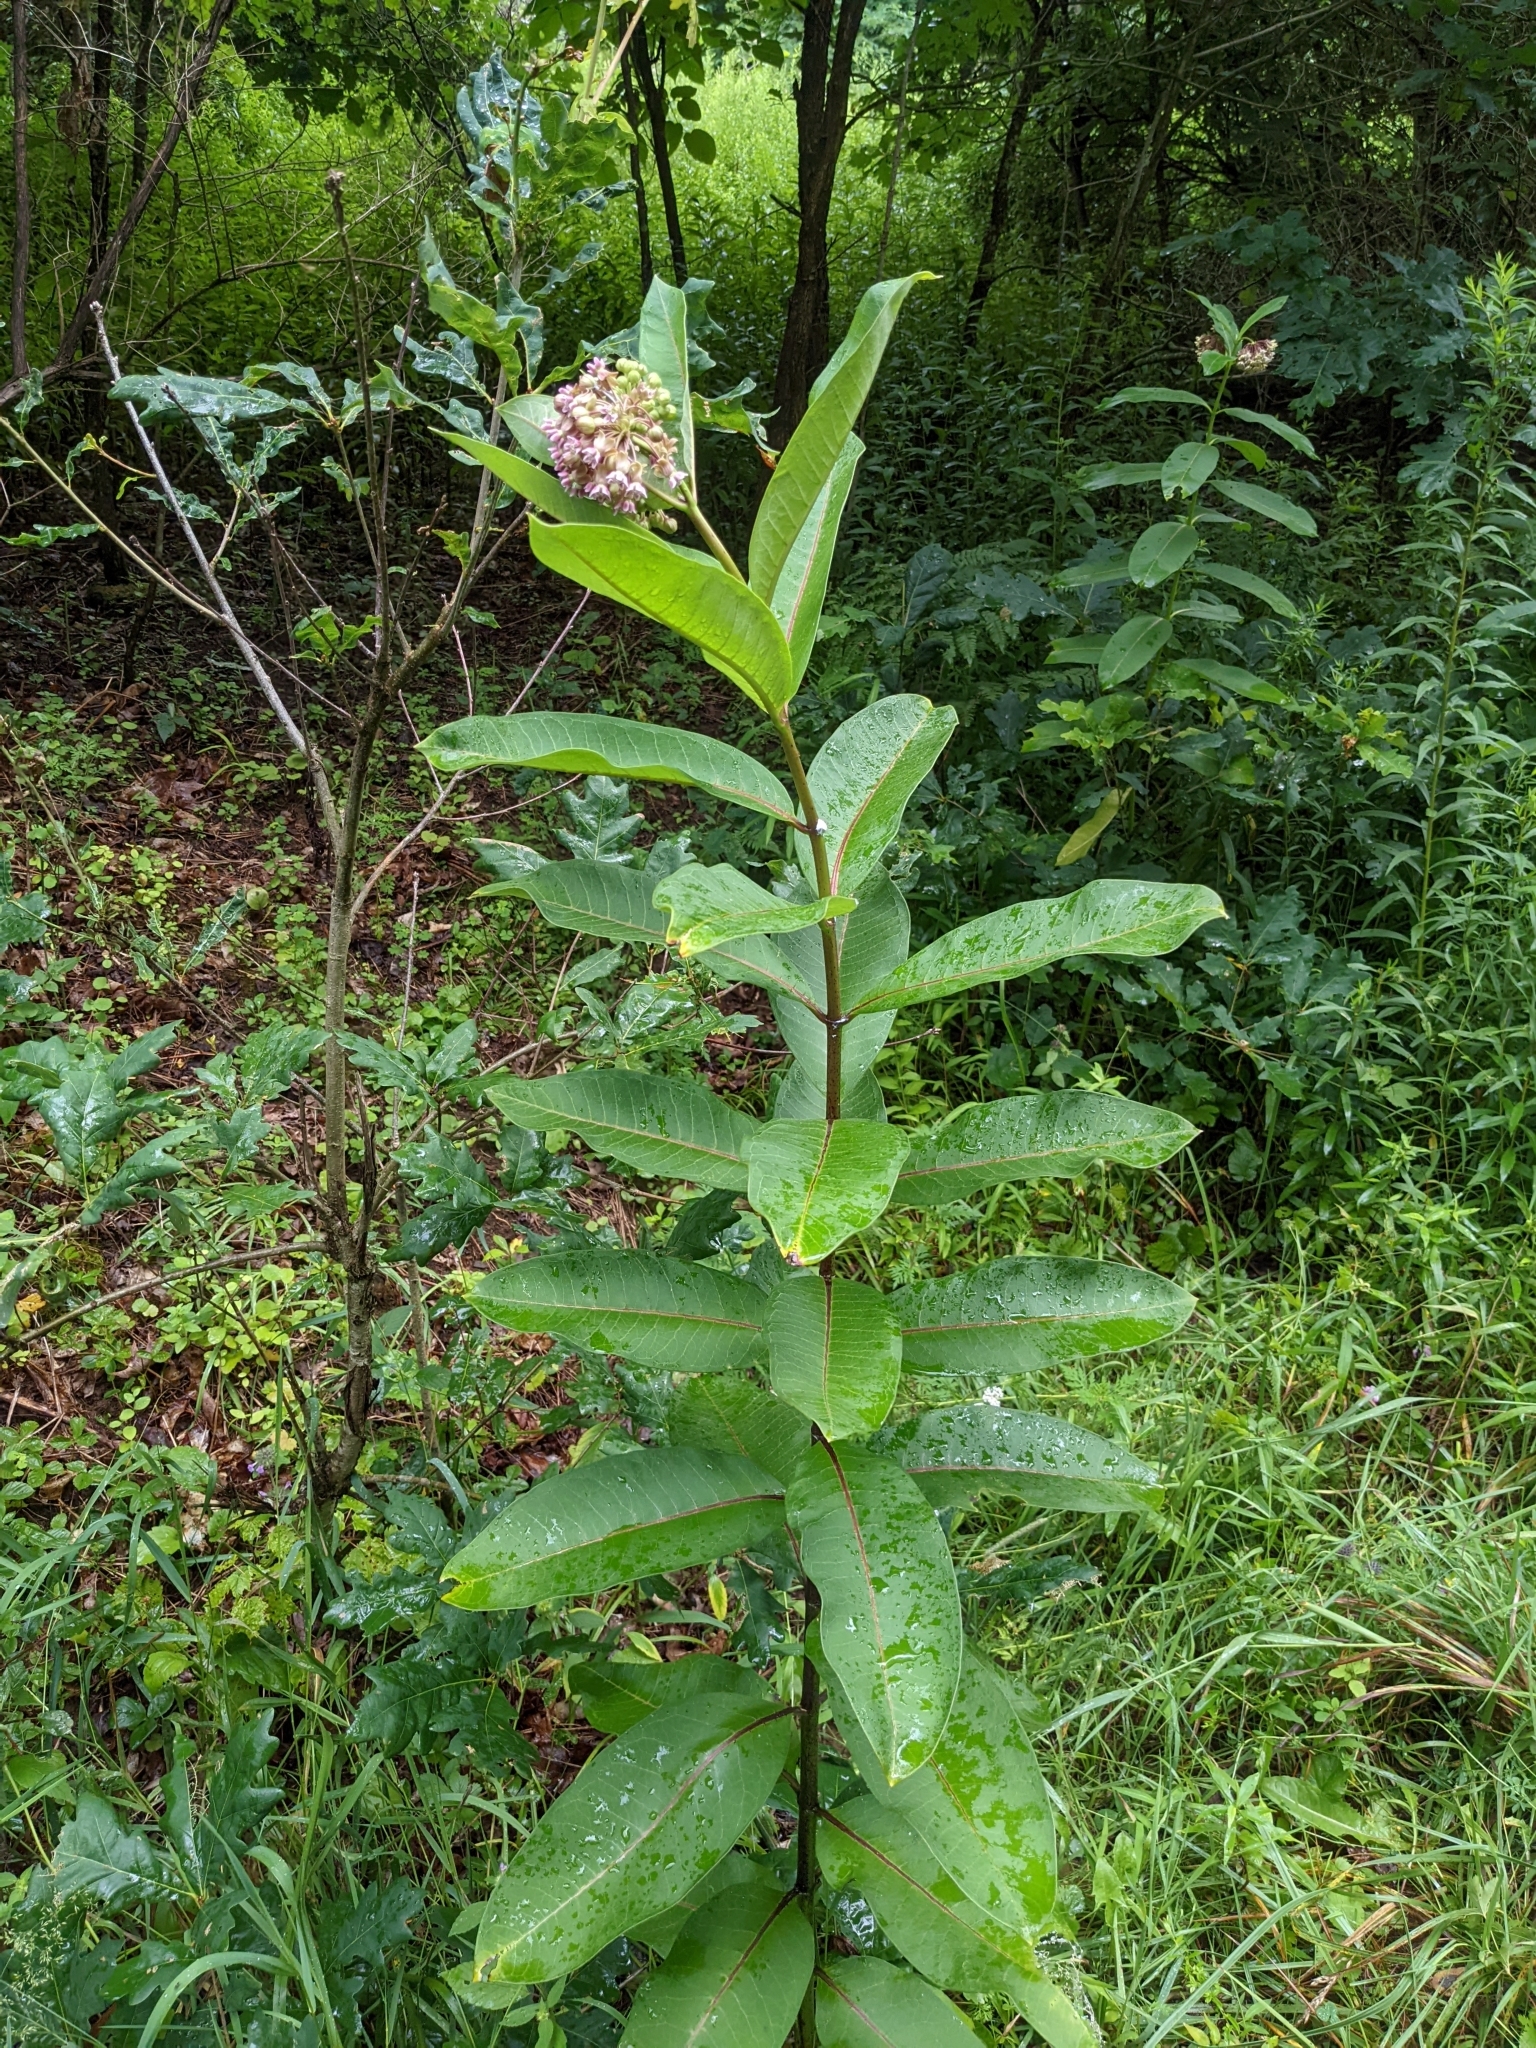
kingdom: Plantae
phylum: Tracheophyta
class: Magnoliopsida
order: Gentianales
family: Apocynaceae
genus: Asclepias
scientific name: Asclepias syriaca
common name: Common milkweed
